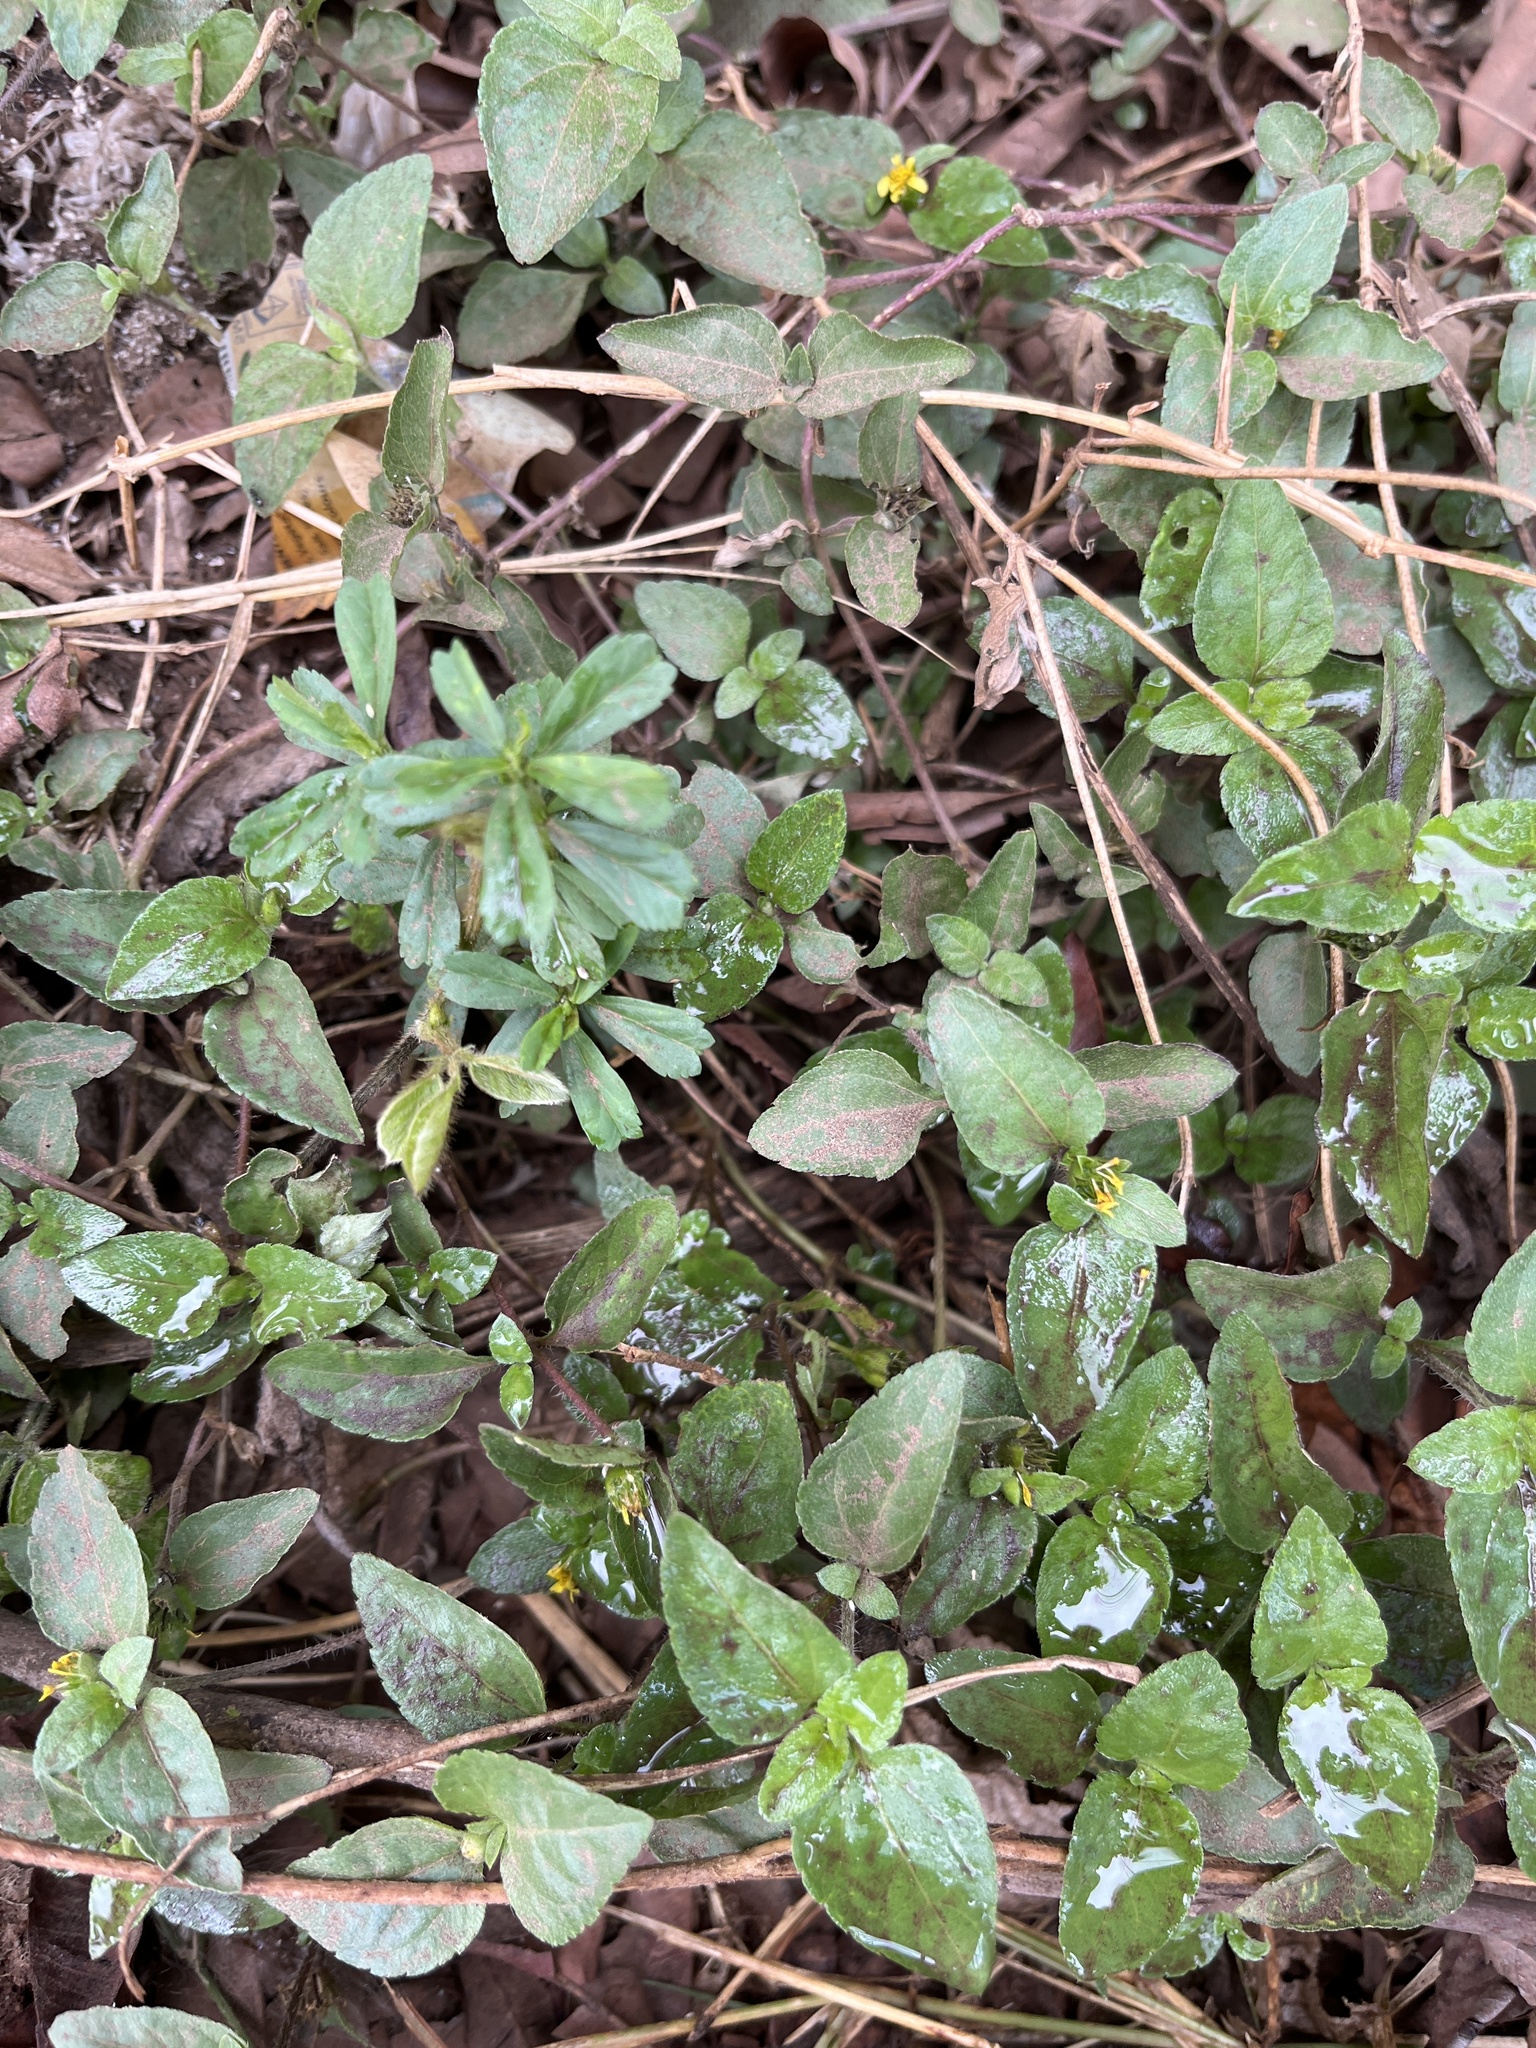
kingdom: Plantae
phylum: Tracheophyta
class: Magnoliopsida
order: Asterales
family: Asteraceae
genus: Sphagneticola
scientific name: Sphagneticola trilobata
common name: Bay biscayne creeping-oxeye
